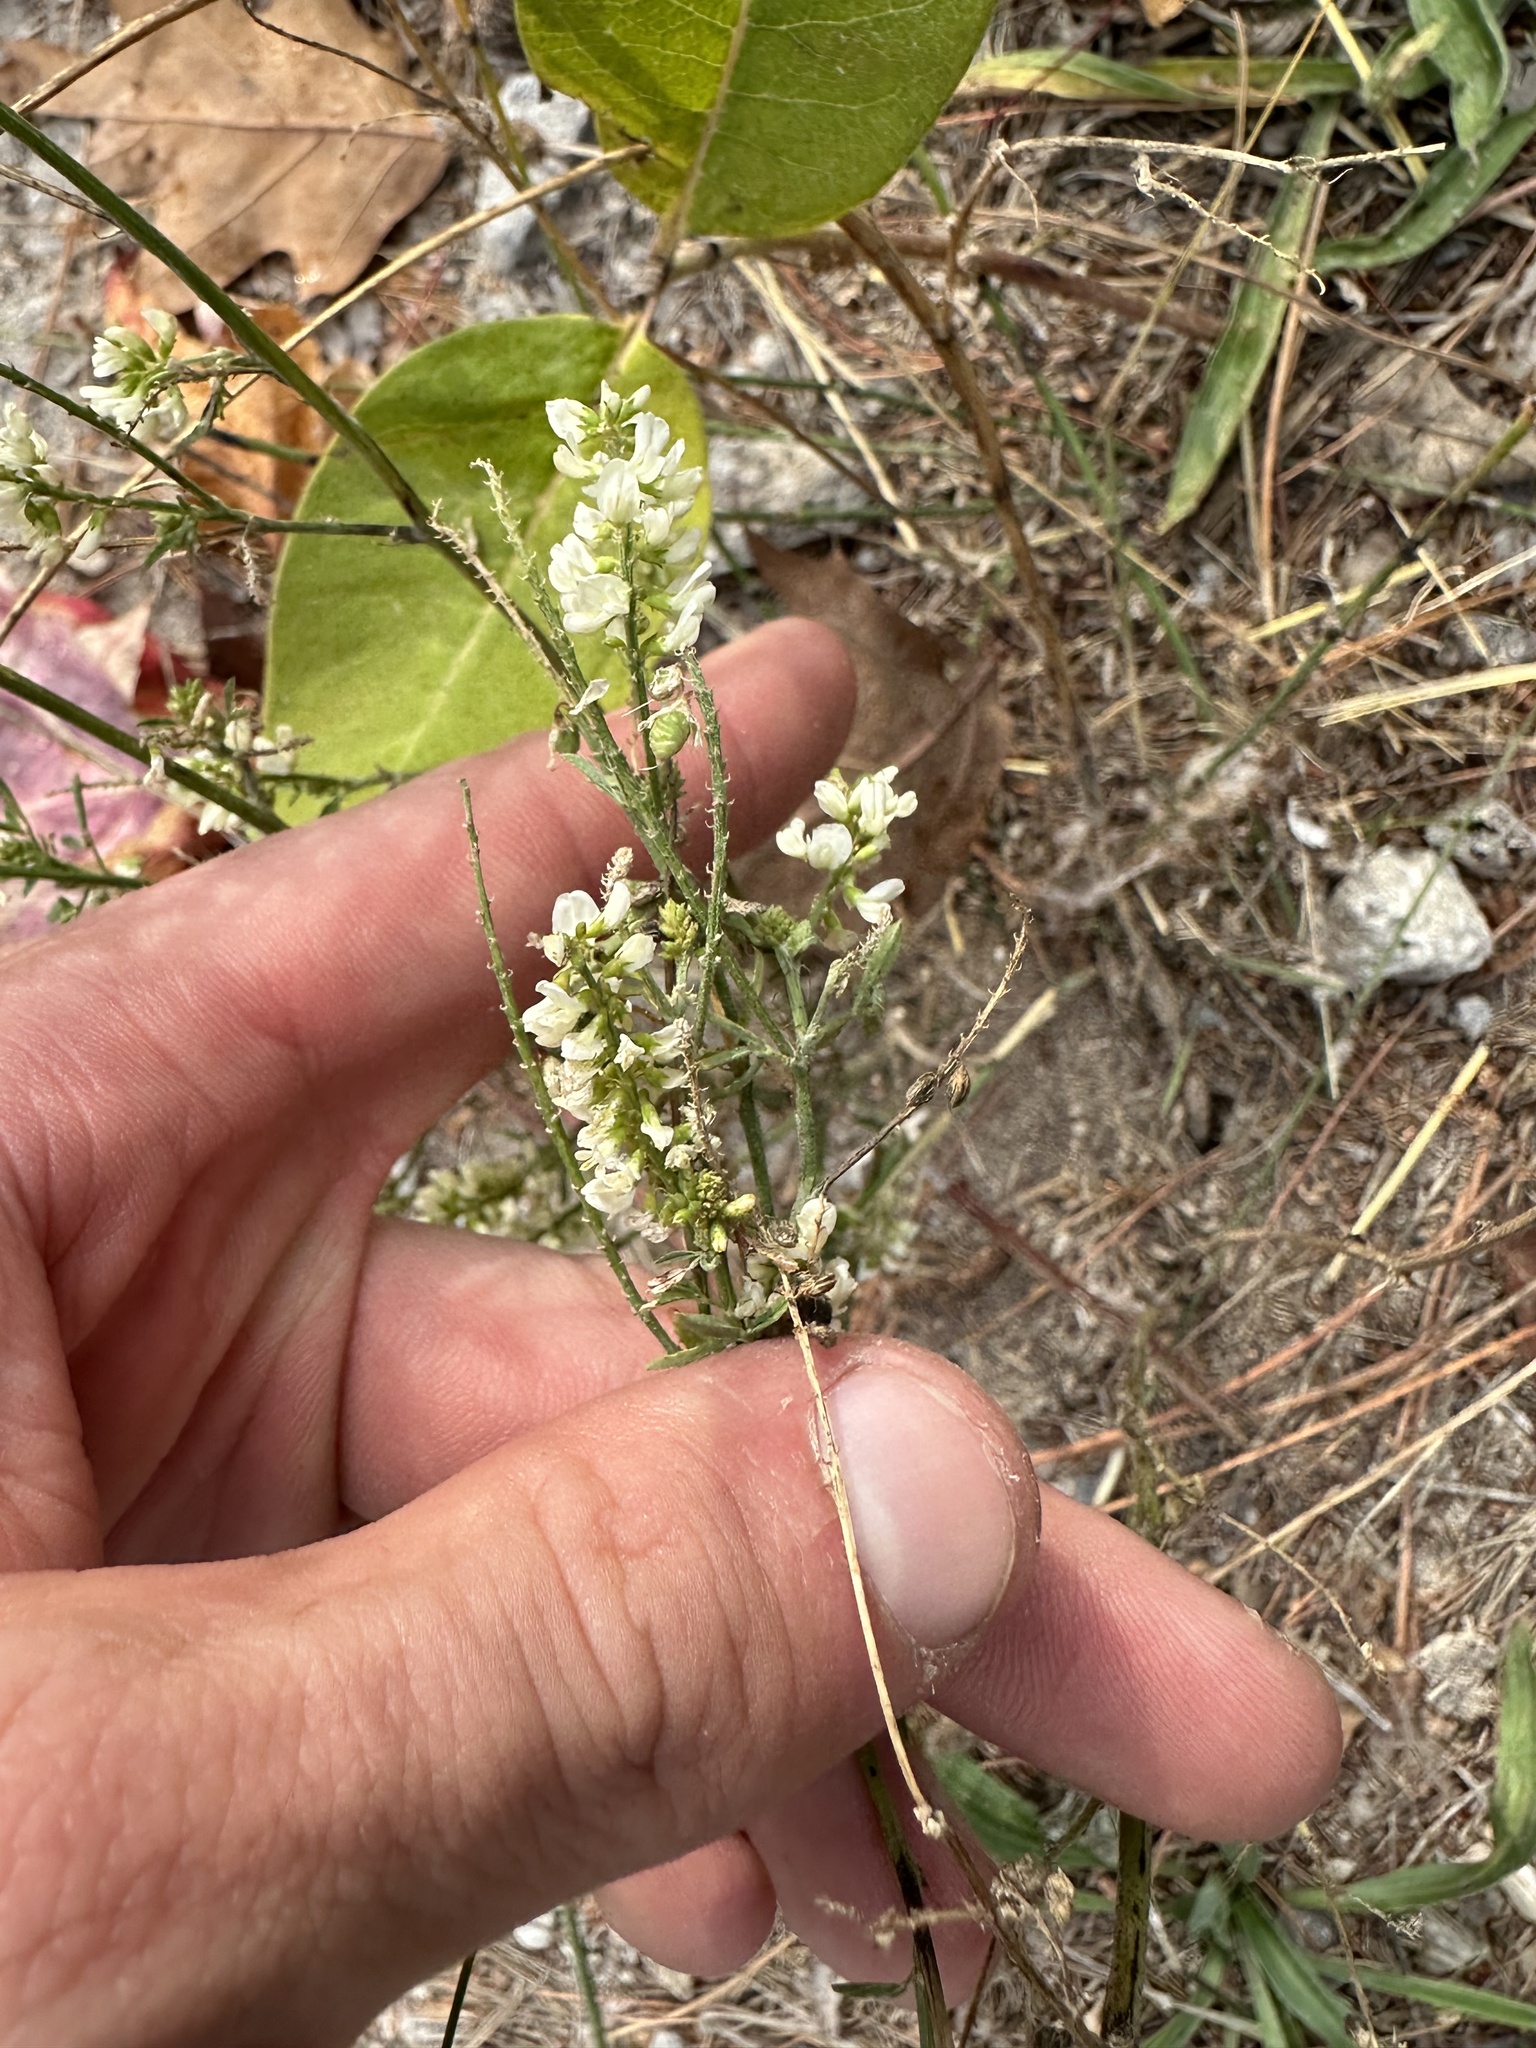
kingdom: Plantae
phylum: Tracheophyta
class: Magnoliopsida
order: Fabales
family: Fabaceae
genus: Melilotus
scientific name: Melilotus albus
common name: White melilot
